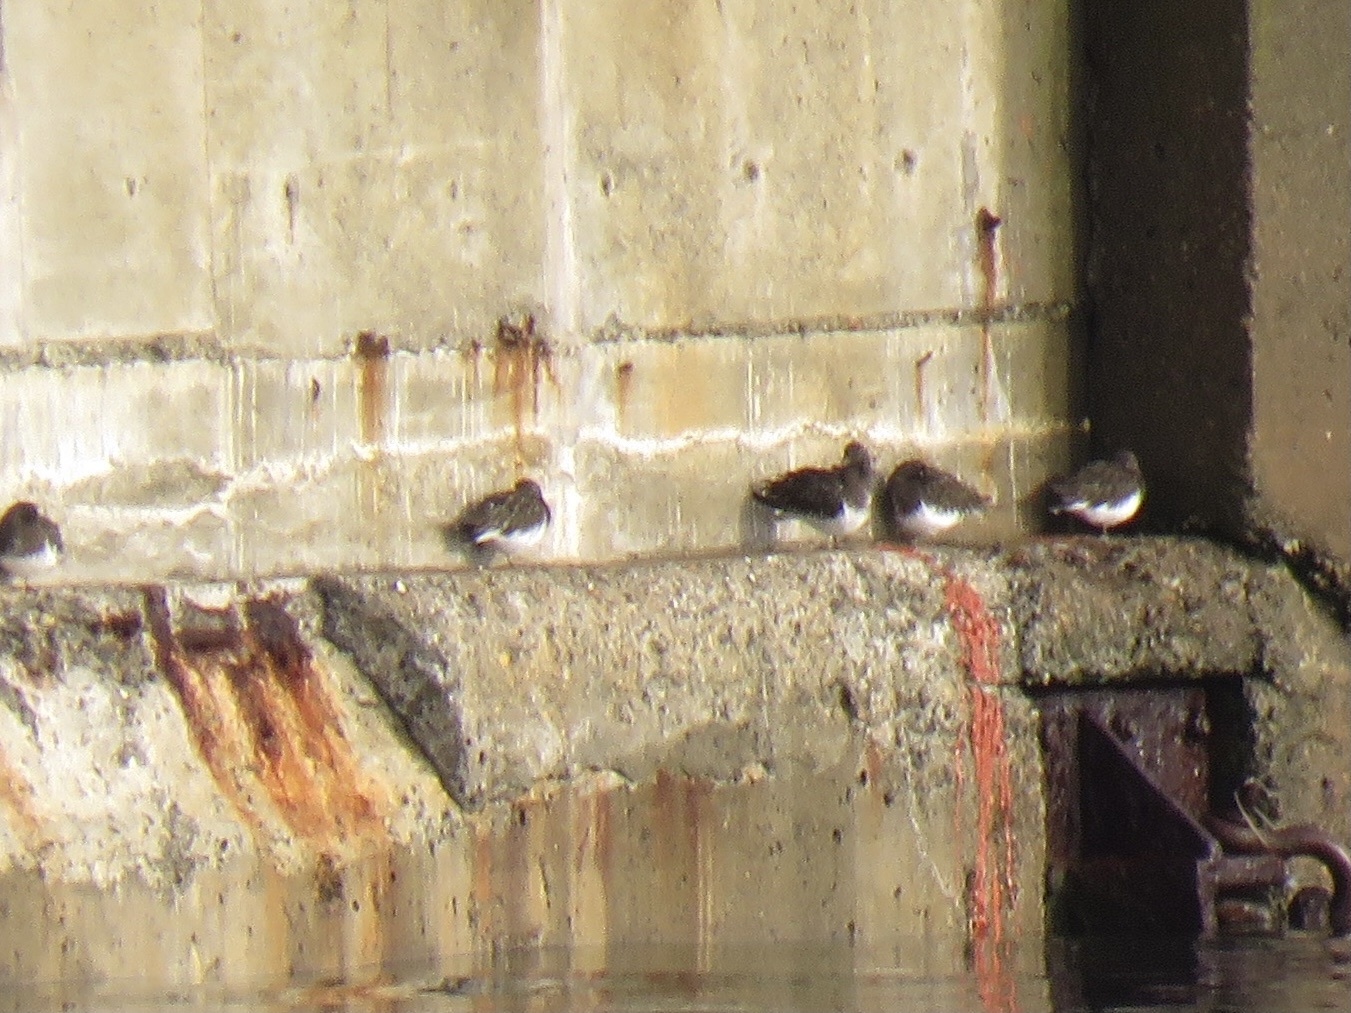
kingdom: Animalia
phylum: Chordata
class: Aves
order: Charadriiformes
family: Scolopacidae
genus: Arenaria
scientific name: Arenaria melanocephala
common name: Black turnstone
